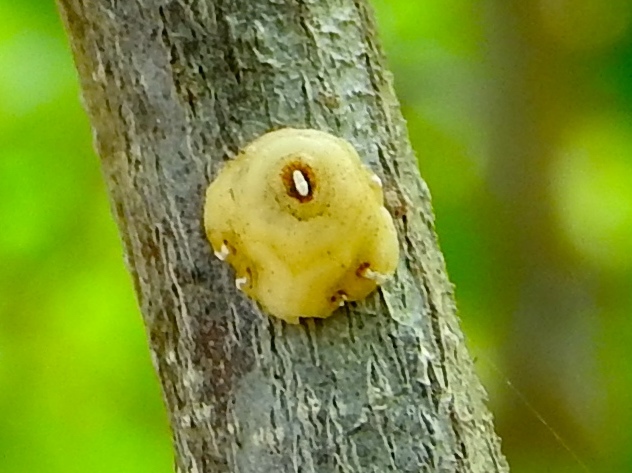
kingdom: Animalia
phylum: Arthropoda
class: Insecta
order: Hemiptera
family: Coccidae
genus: Ceroplastes
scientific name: Ceroplastes cirripediformis
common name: Barnacle scale
